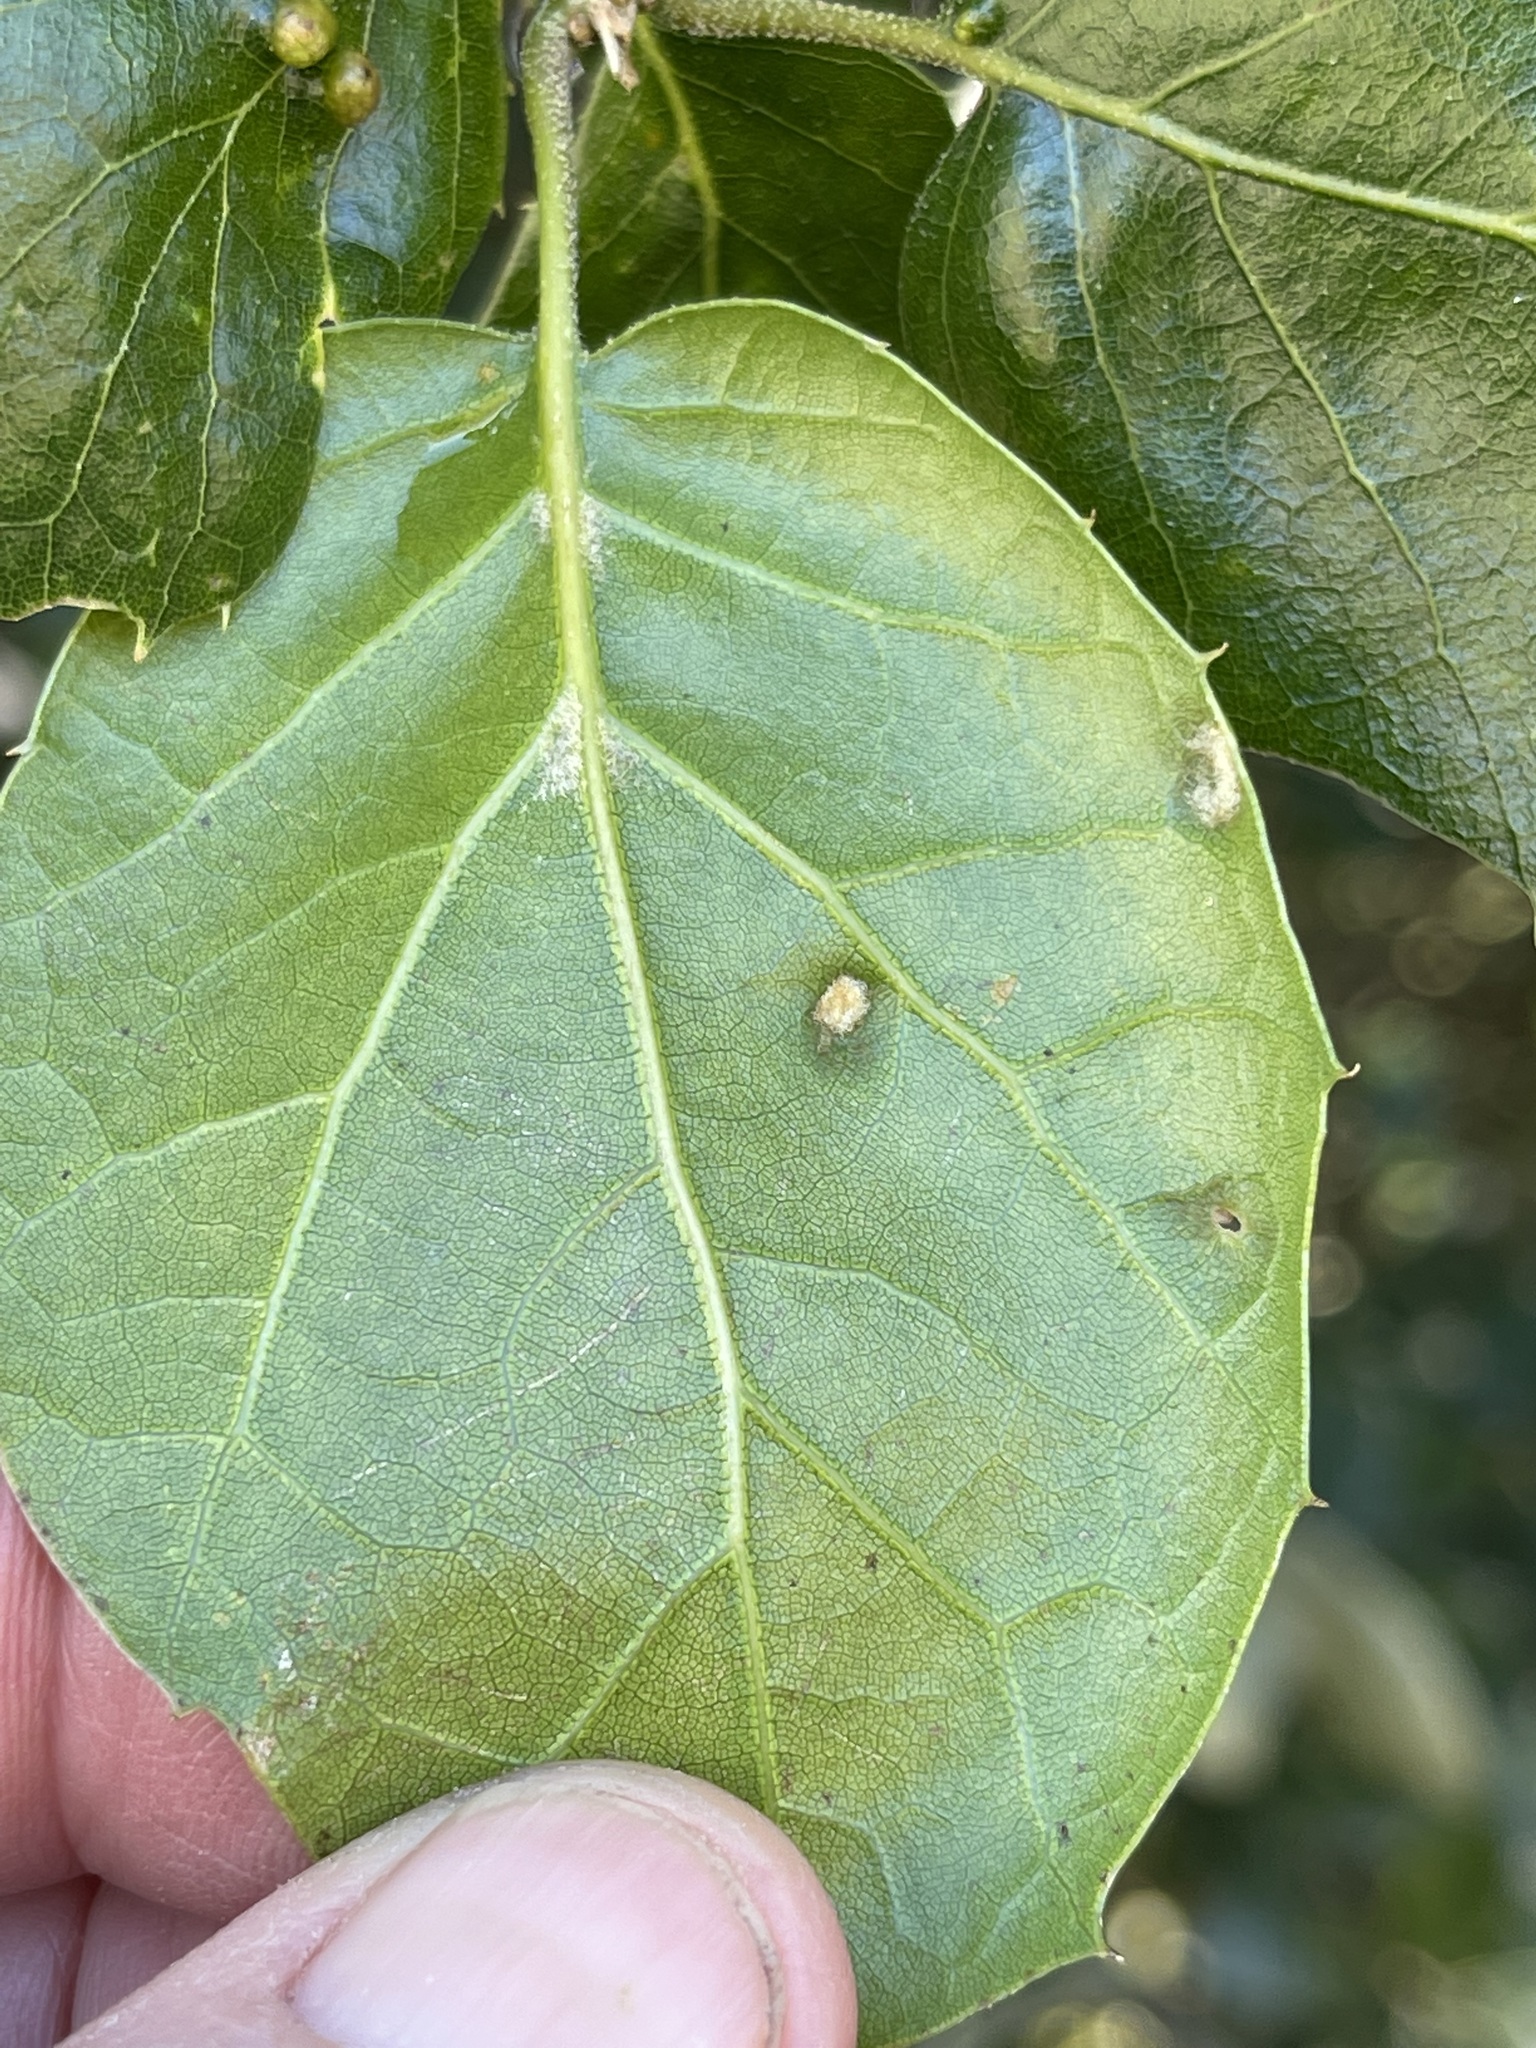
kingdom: Plantae
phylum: Tracheophyta
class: Magnoliopsida
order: Fagales
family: Fagaceae
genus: Quercus
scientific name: Quercus agrifolia
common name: California live oak
